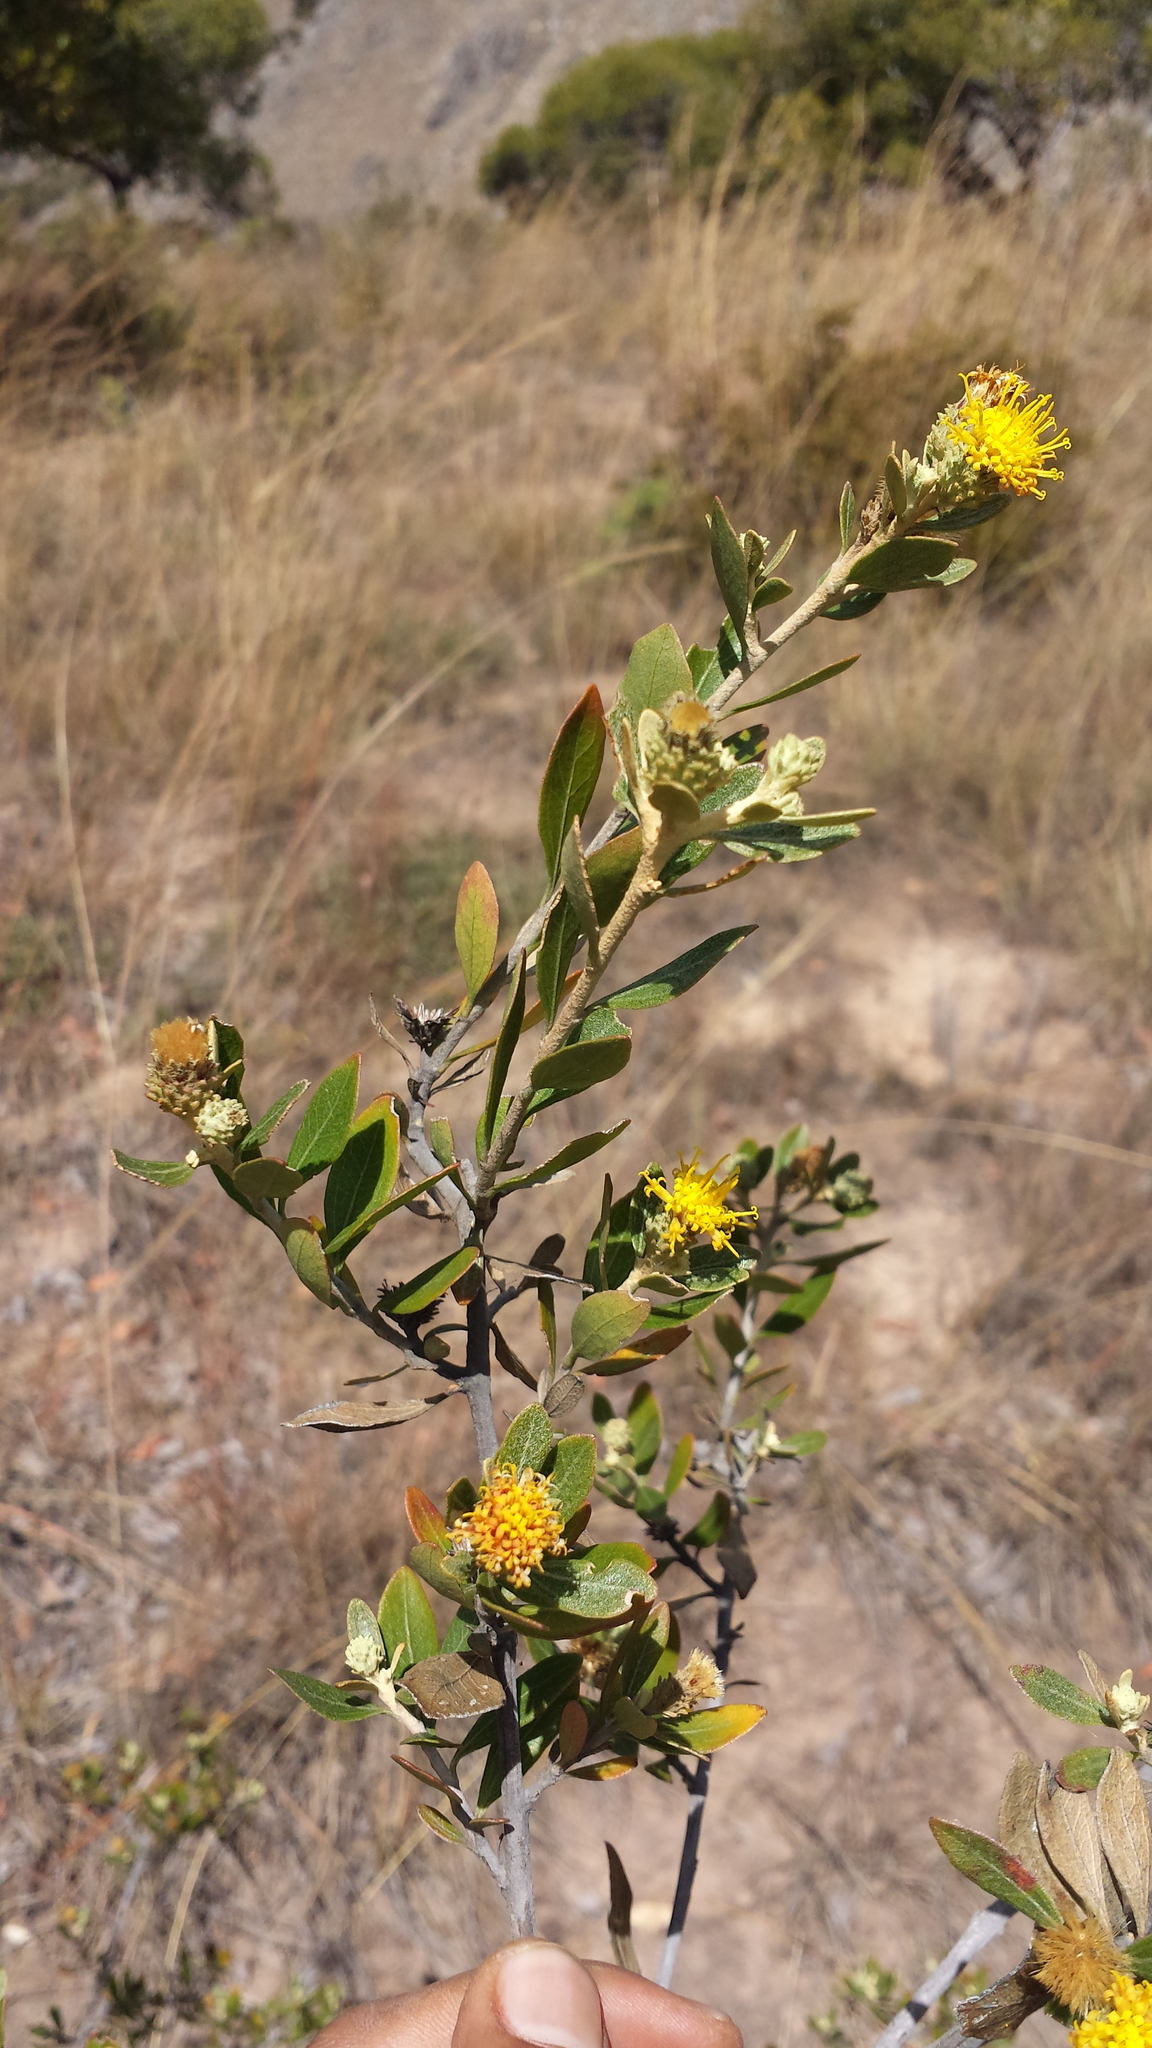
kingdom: Plantae
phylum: Tracheophyta
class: Magnoliopsida
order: Asterales
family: Asteraceae
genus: Distephanus
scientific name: Distephanus glutinosus
